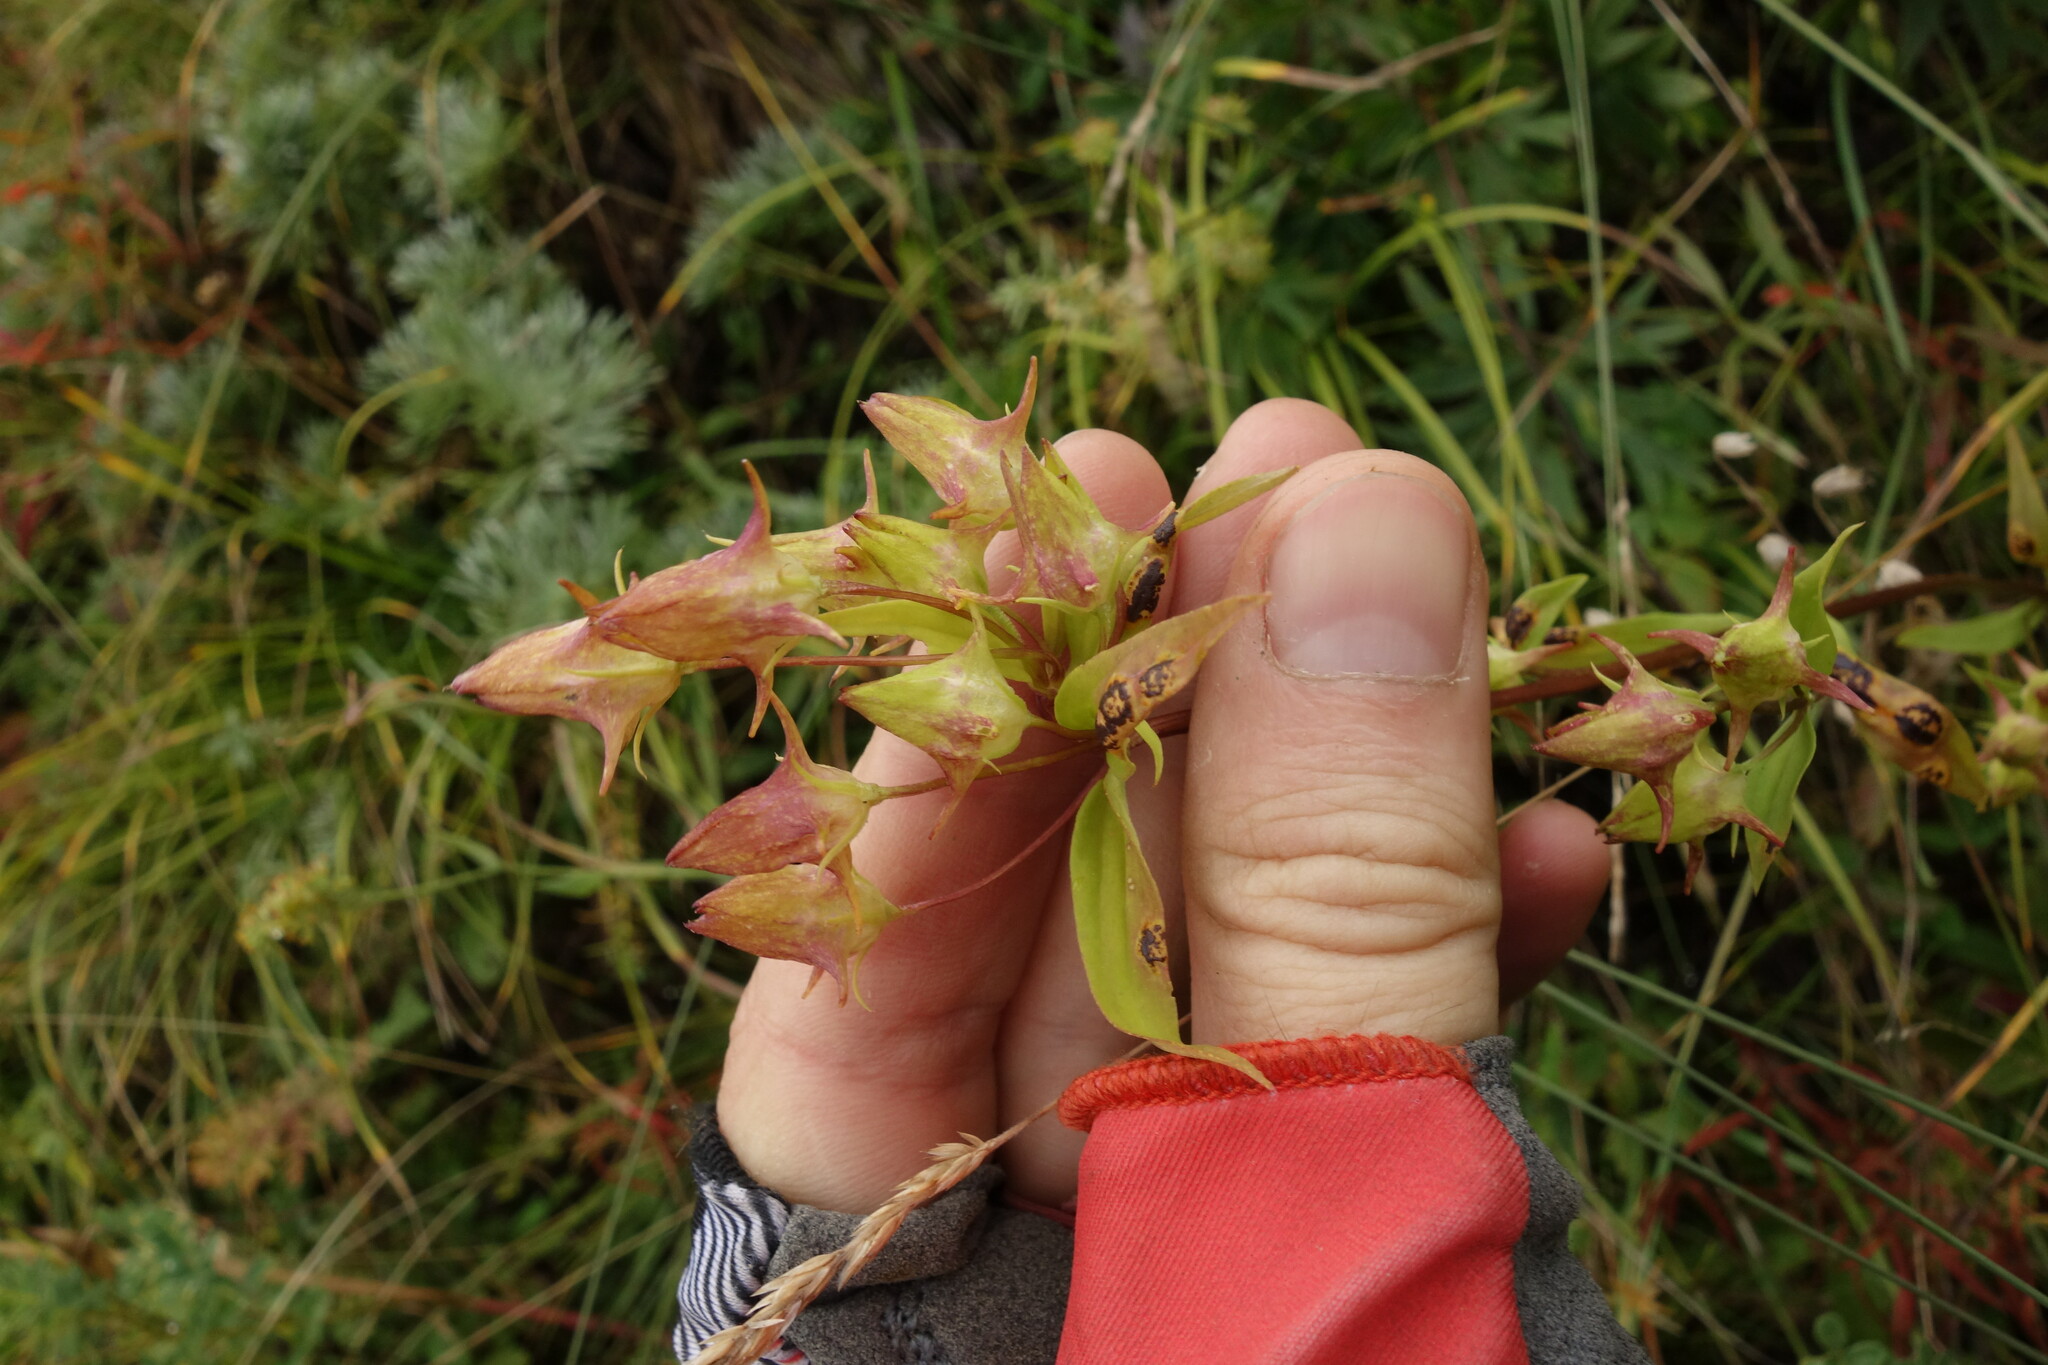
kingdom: Plantae
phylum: Tracheophyta
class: Magnoliopsida
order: Gentianales
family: Gentianaceae
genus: Halenia
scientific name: Halenia corniculata
